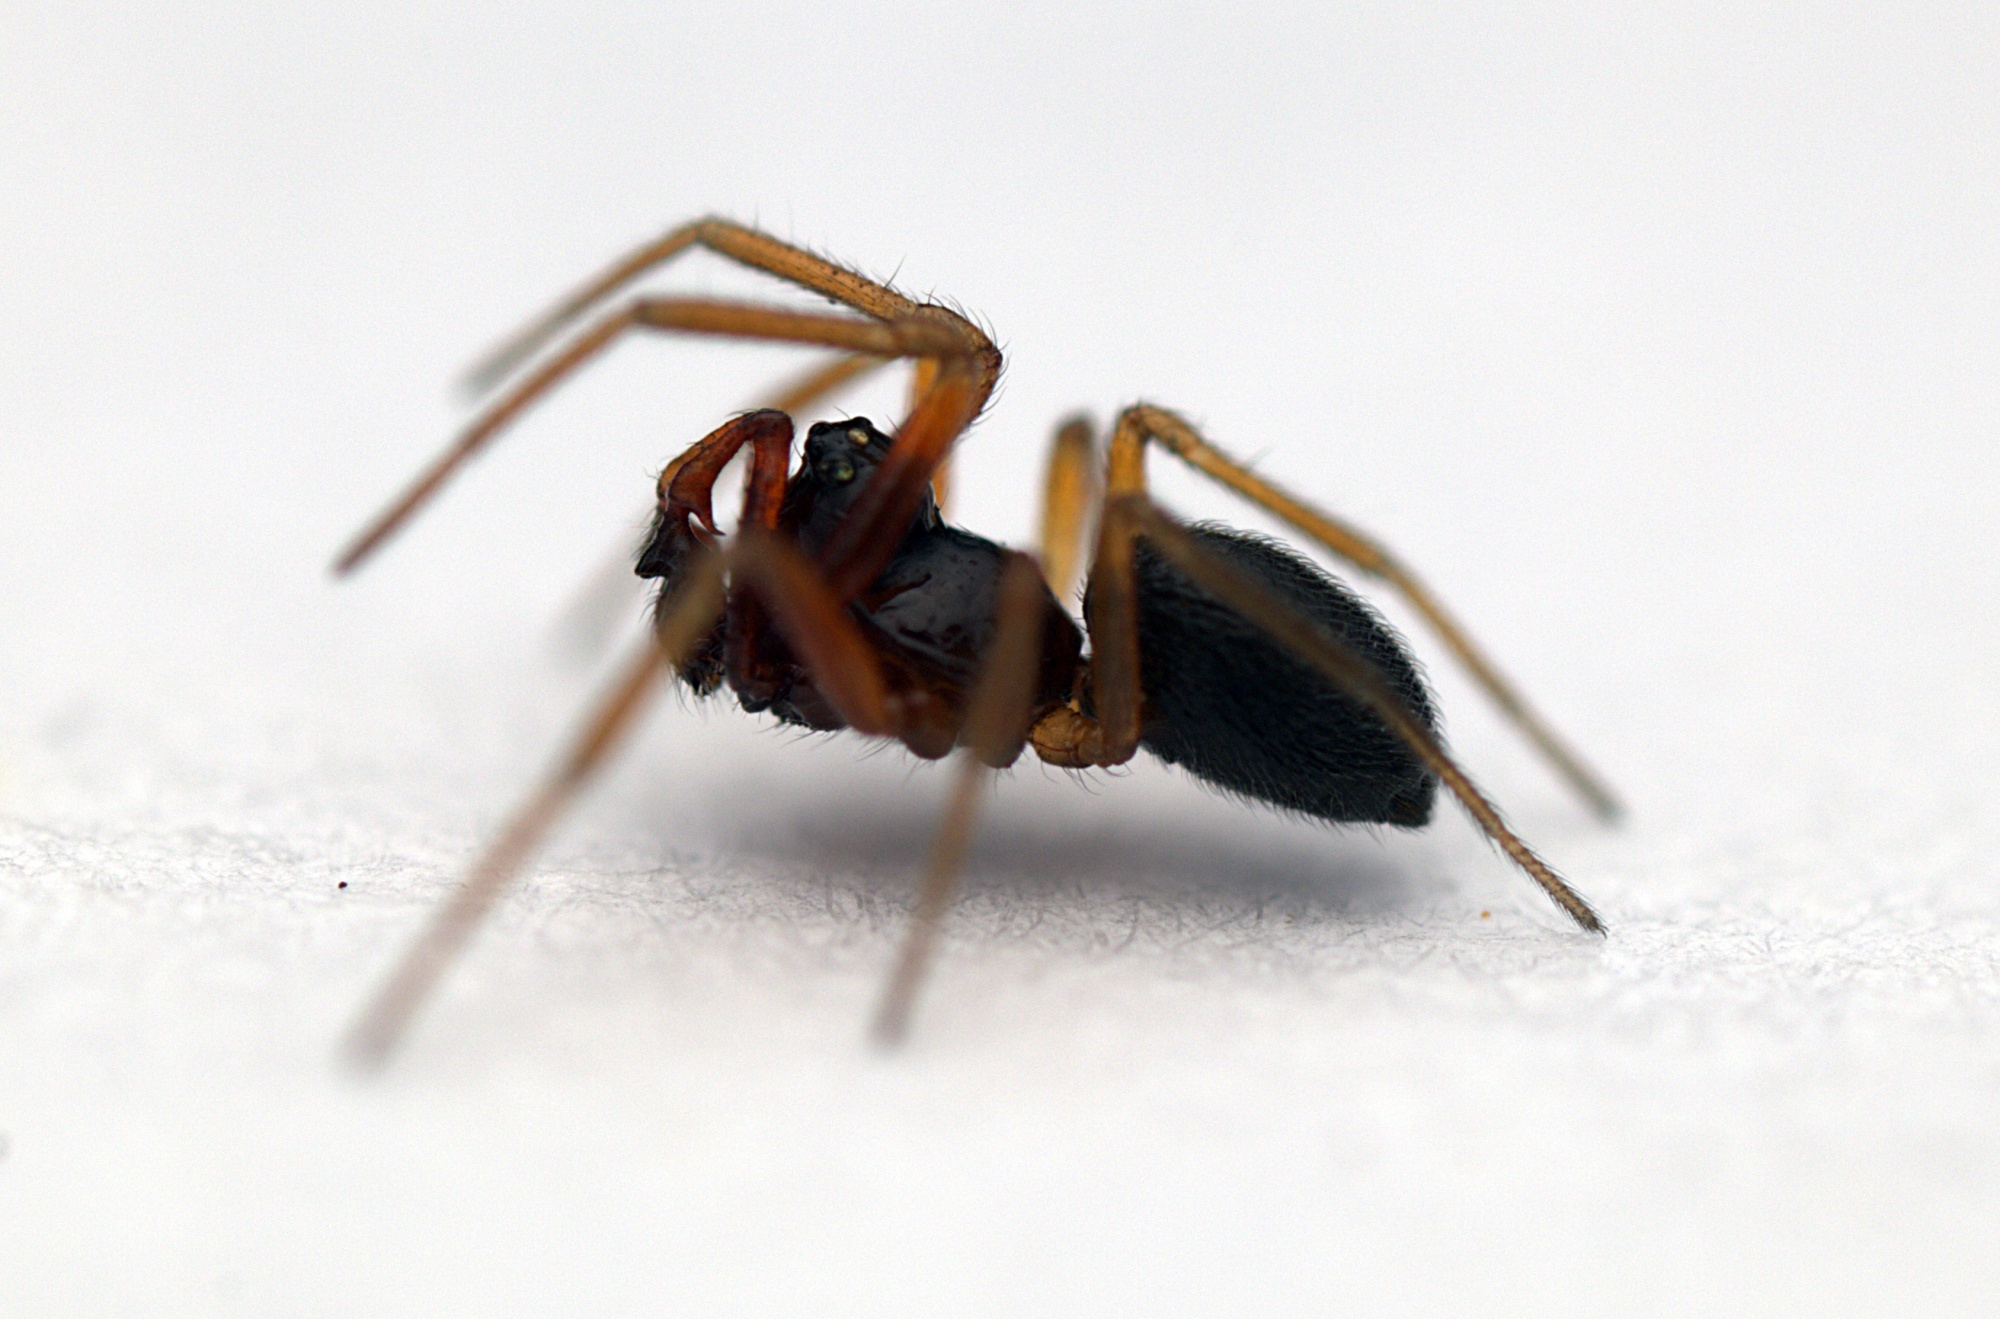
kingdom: Animalia
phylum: Arthropoda
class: Arachnida
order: Araneae
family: Linyphiidae
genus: Erigone
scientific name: Erigone prominens
